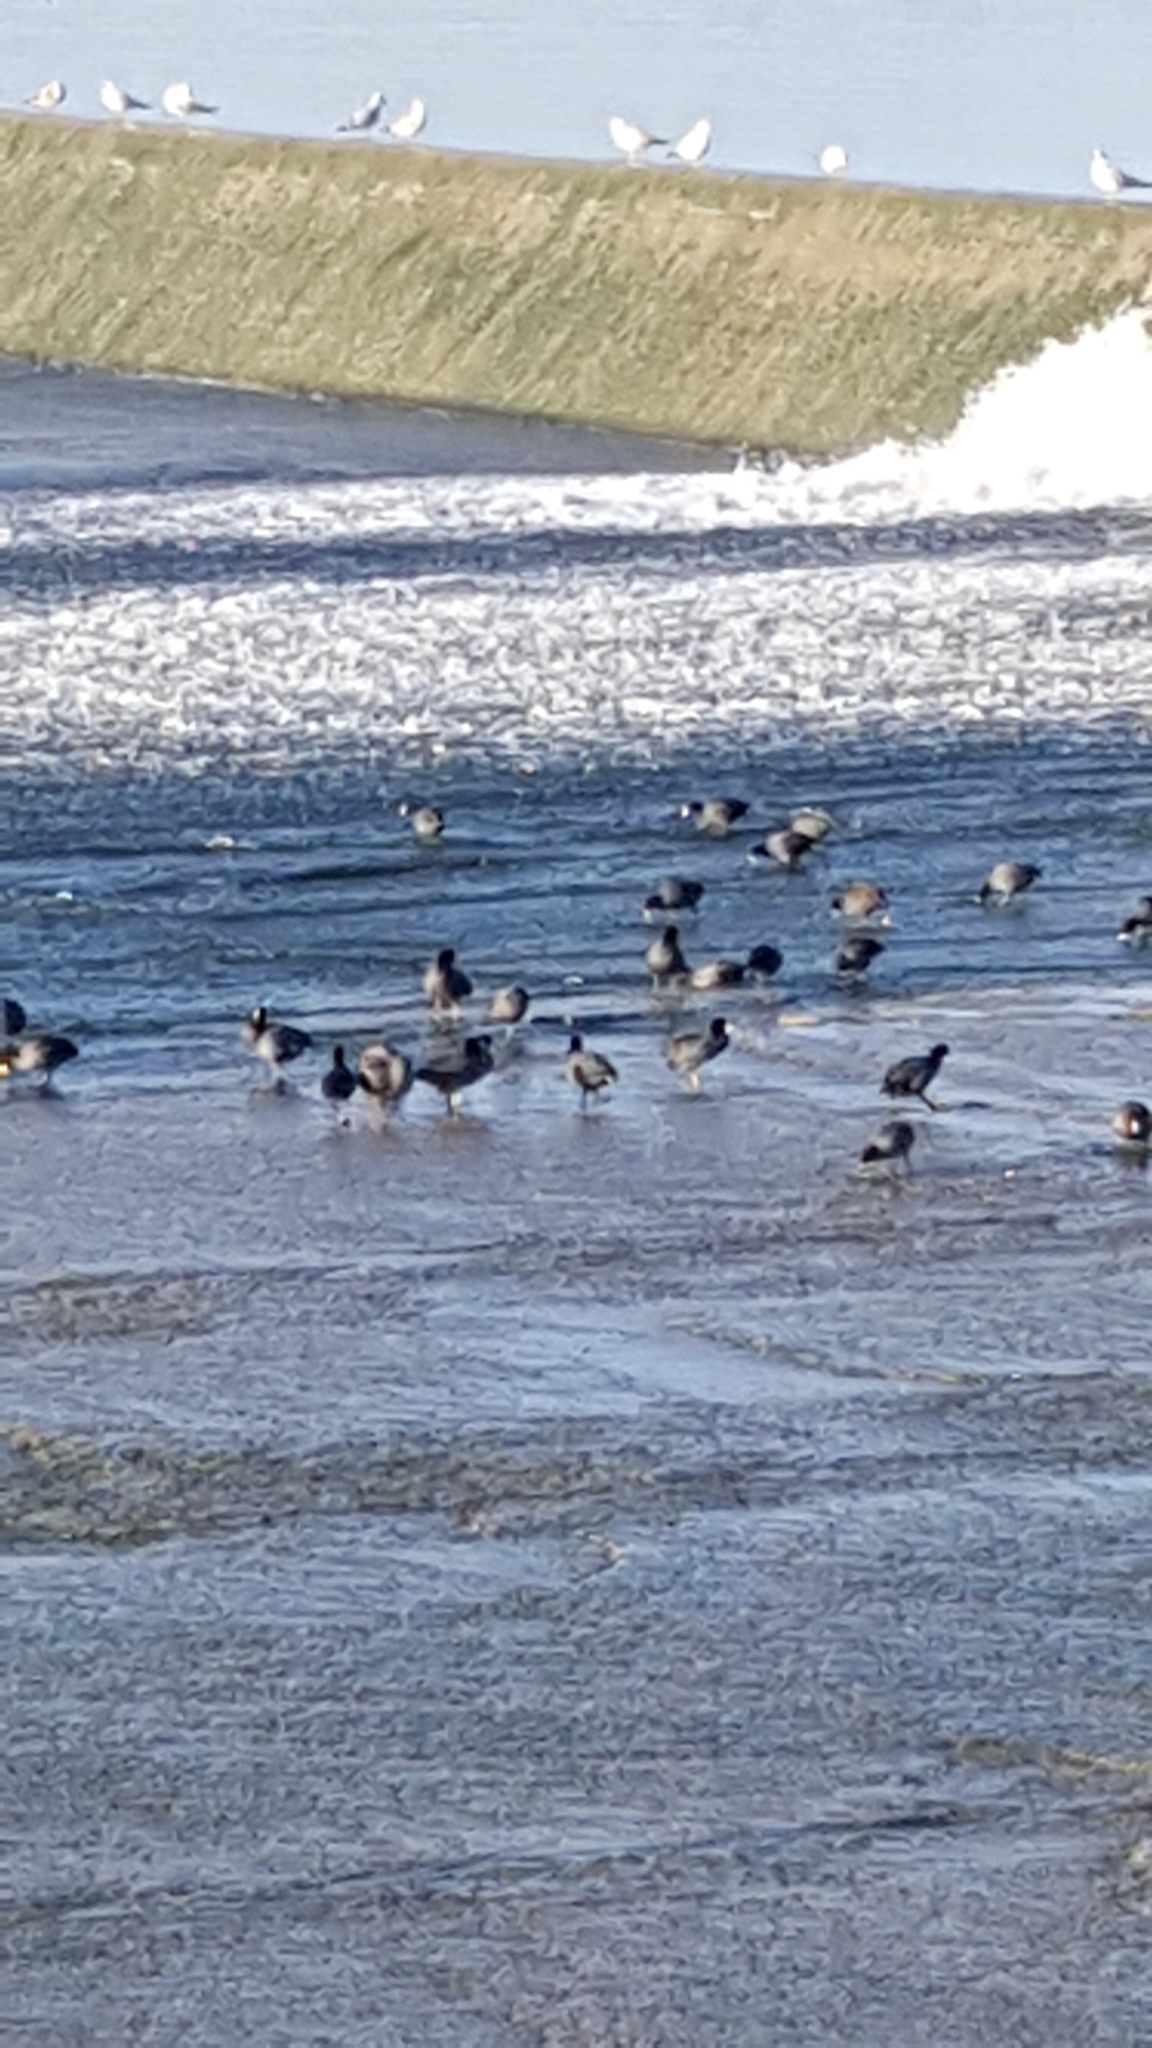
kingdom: Animalia
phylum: Chordata
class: Aves
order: Gruiformes
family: Rallidae
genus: Fulica
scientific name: Fulica americana
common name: American coot
